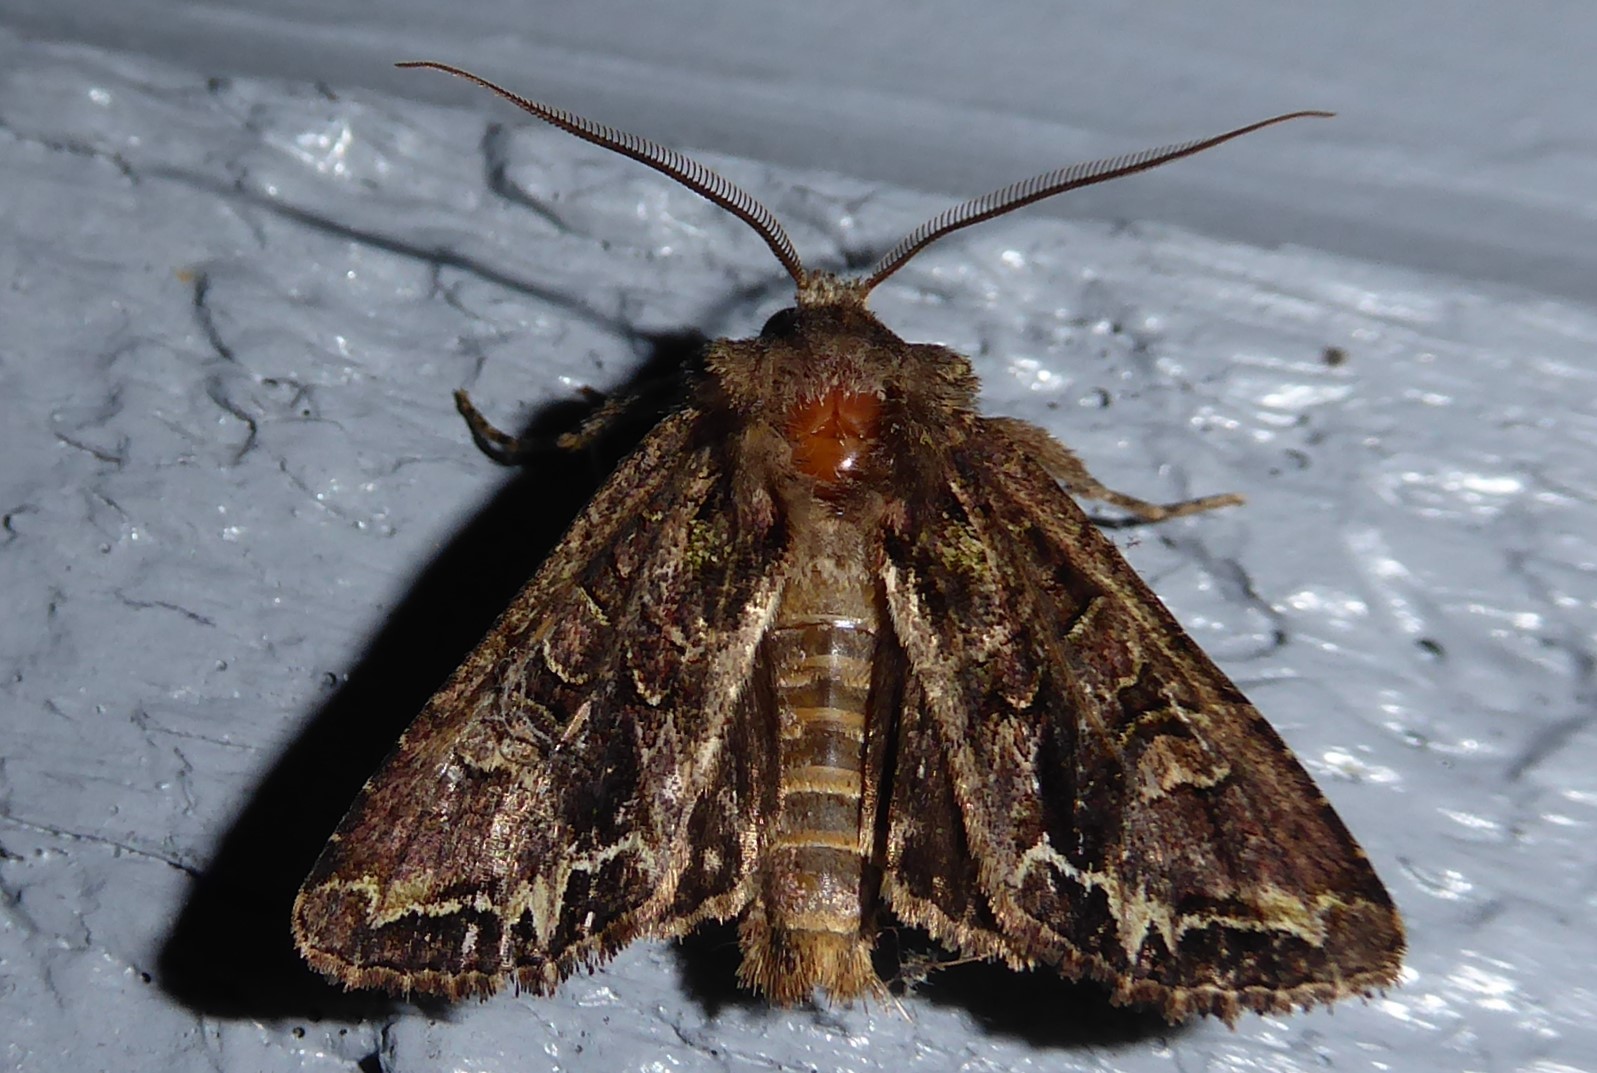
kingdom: Animalia
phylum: Arthropoda
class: Insecta
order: Lepidoptera
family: Noctuidae
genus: Ichneutica
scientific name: Ichneutica insignis
